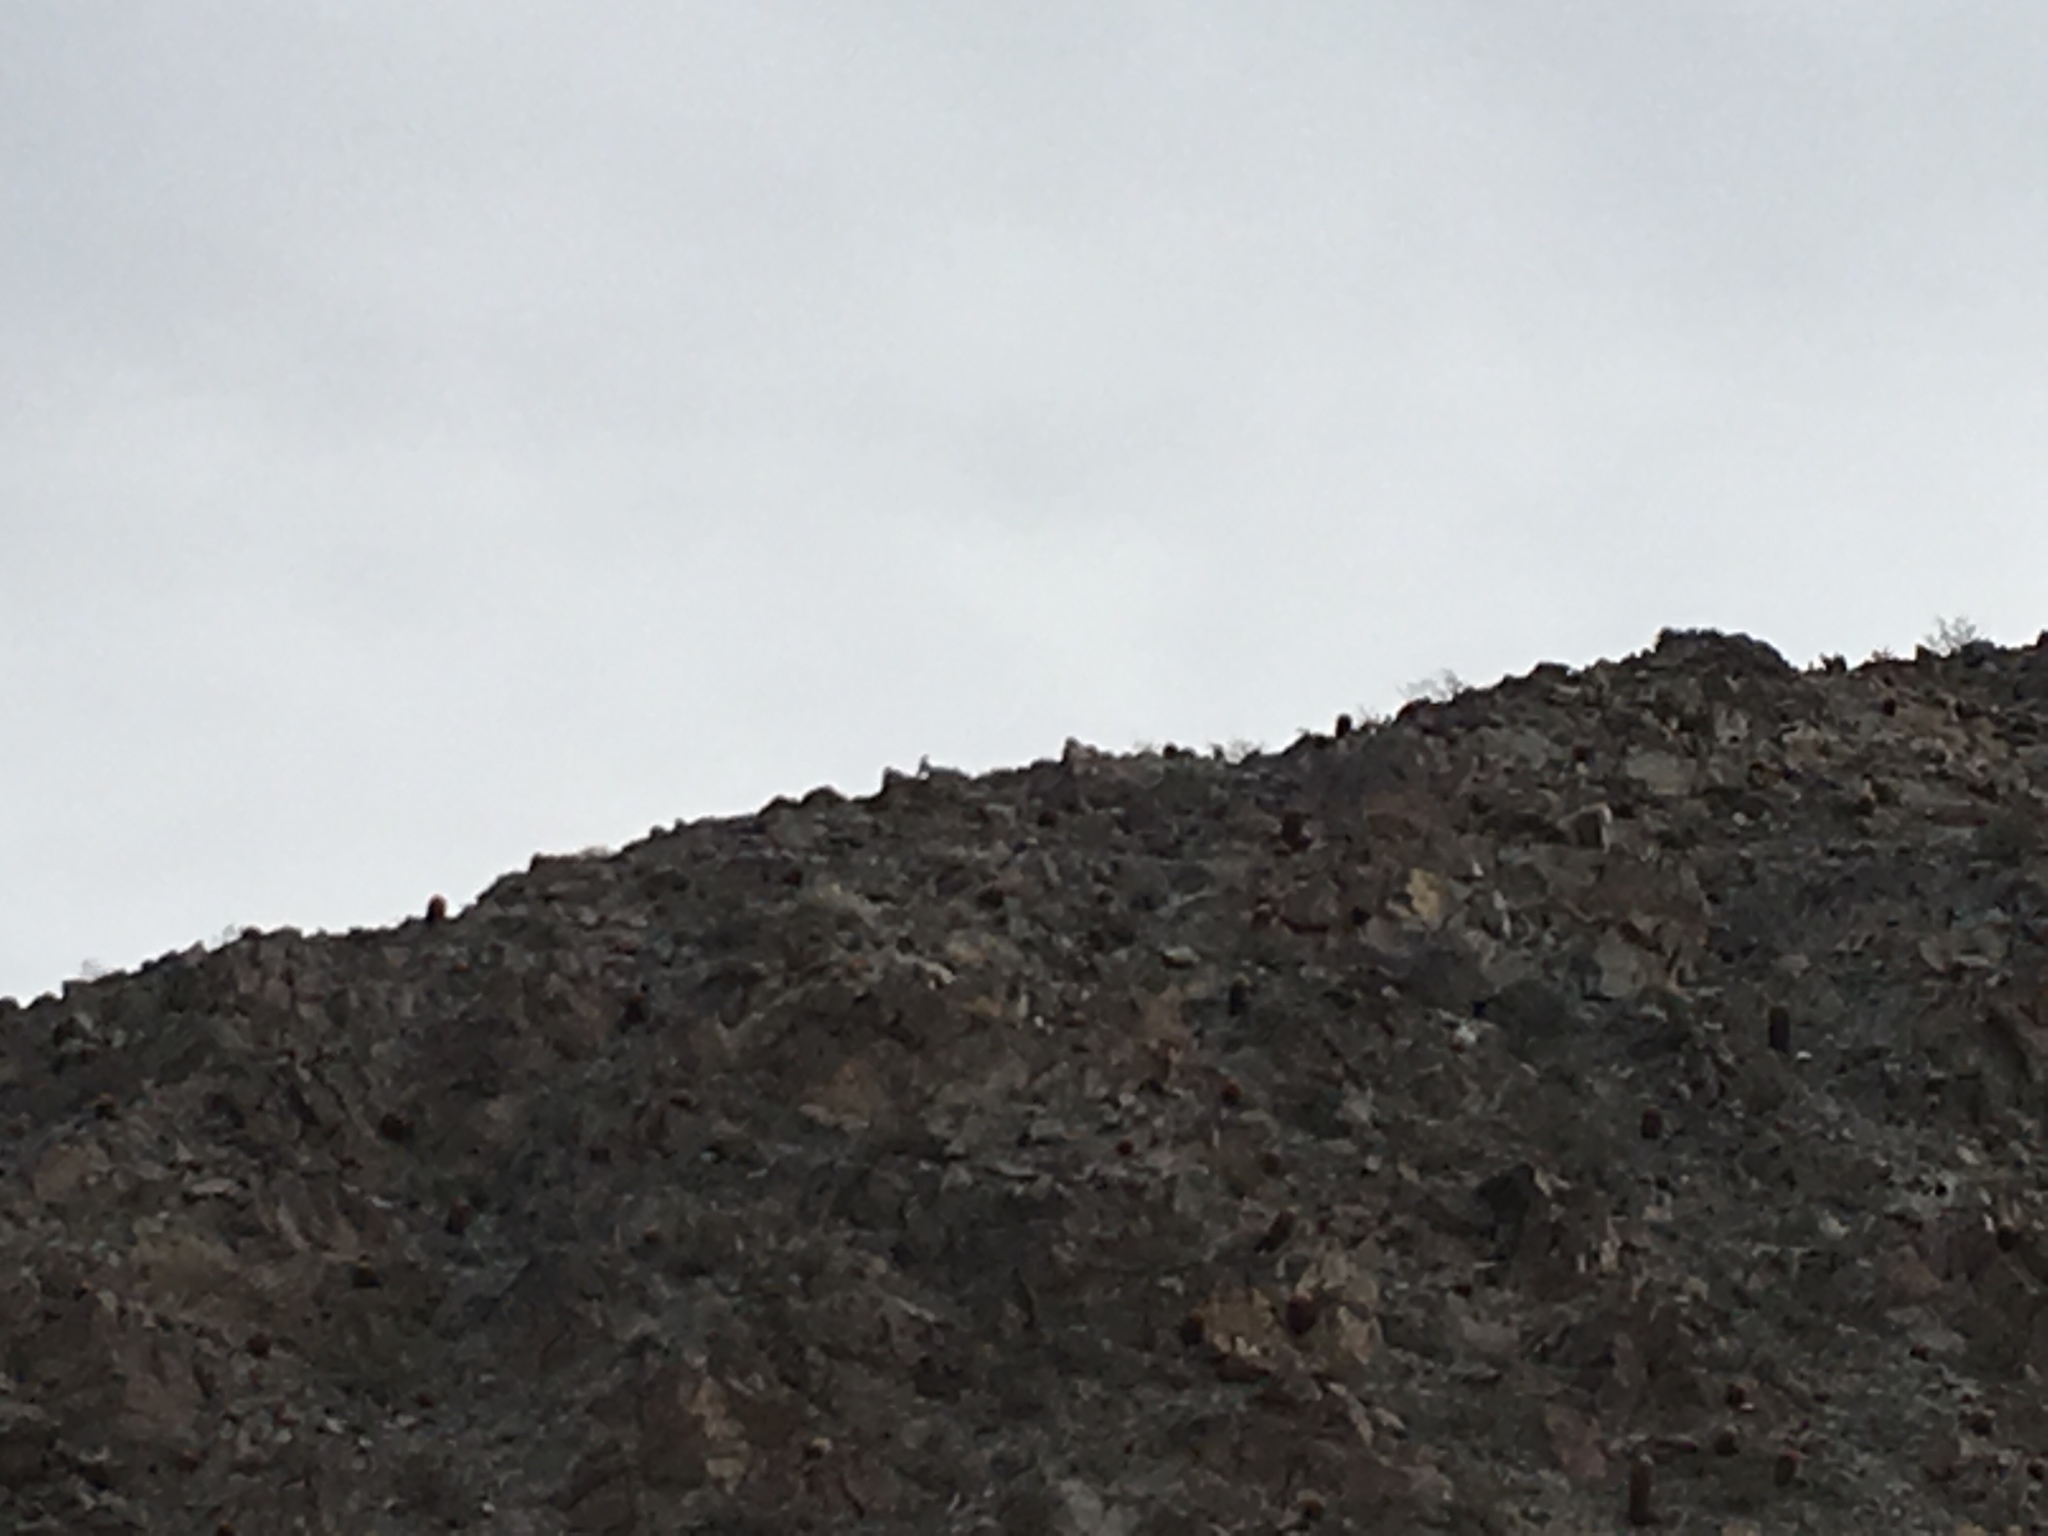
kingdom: Animalia
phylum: Chordata
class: Mammalia
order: Artiodactyla
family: Bovidae
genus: Ovis
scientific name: Ovis canadensis
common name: Bighorn sheep
